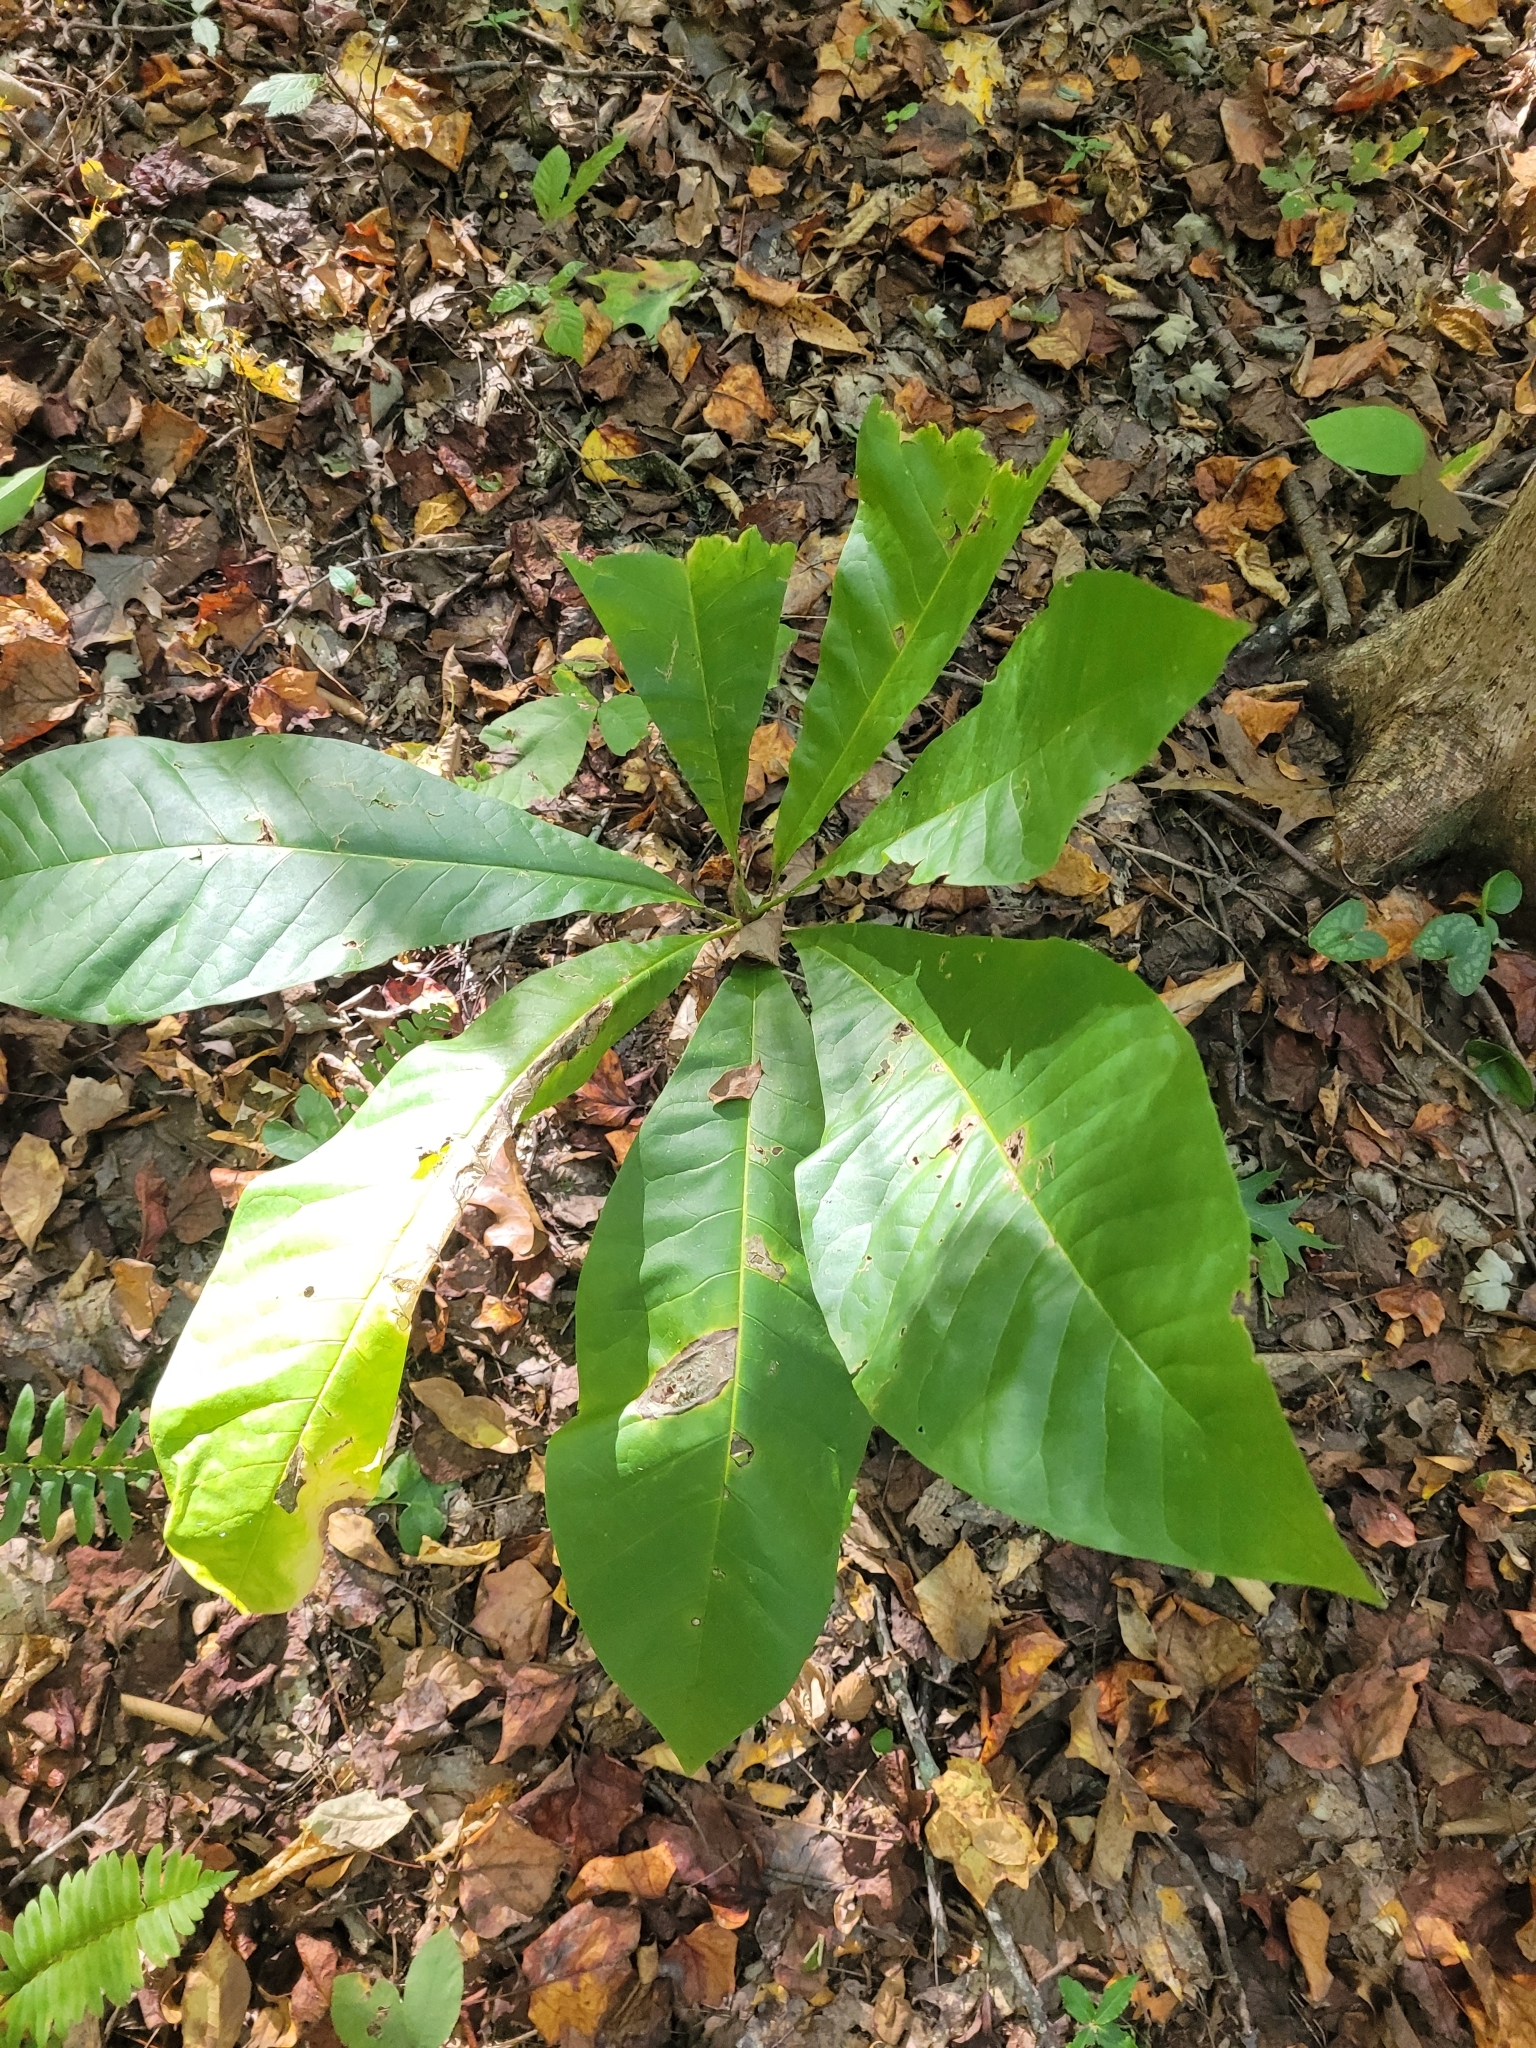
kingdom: Plantae
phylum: Tracheophyta
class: Magnoliopsida
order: Magnoliales
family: Magnoliaceae
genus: Magnolia
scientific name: Magnolia tripetala
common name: Umbrella magnolia
